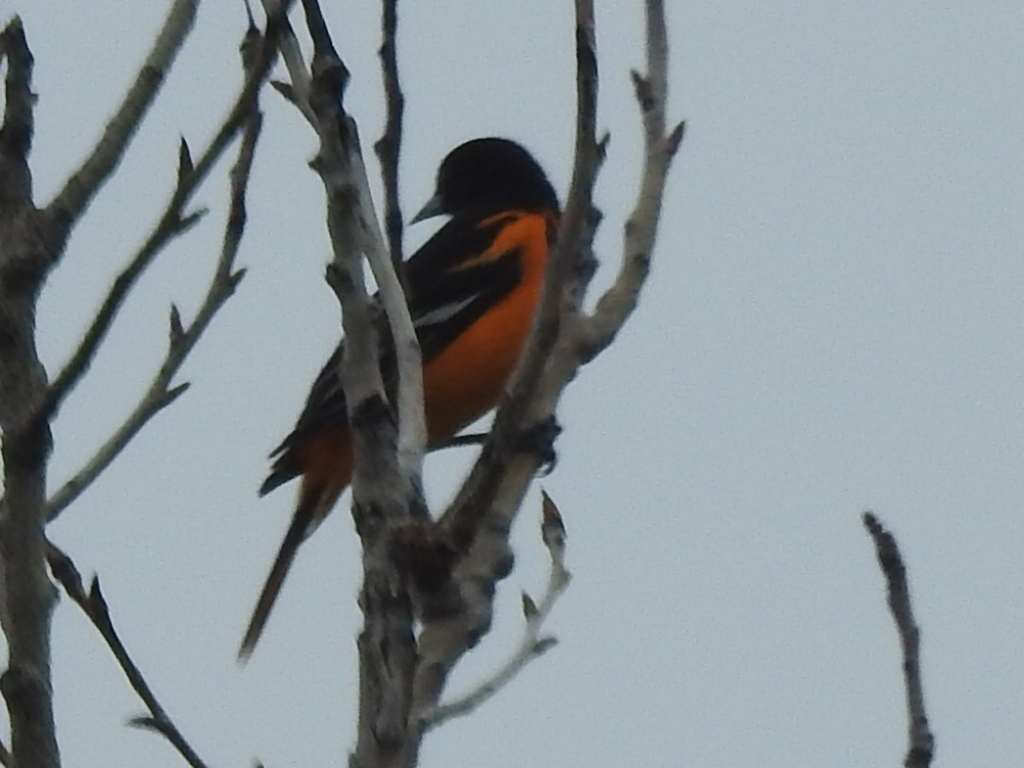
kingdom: Animalia
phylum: Chordata
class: Aves
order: Passeriformes
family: Icteridae
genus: Icterus
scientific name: Icterus galbula
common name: Baltimore oriole
